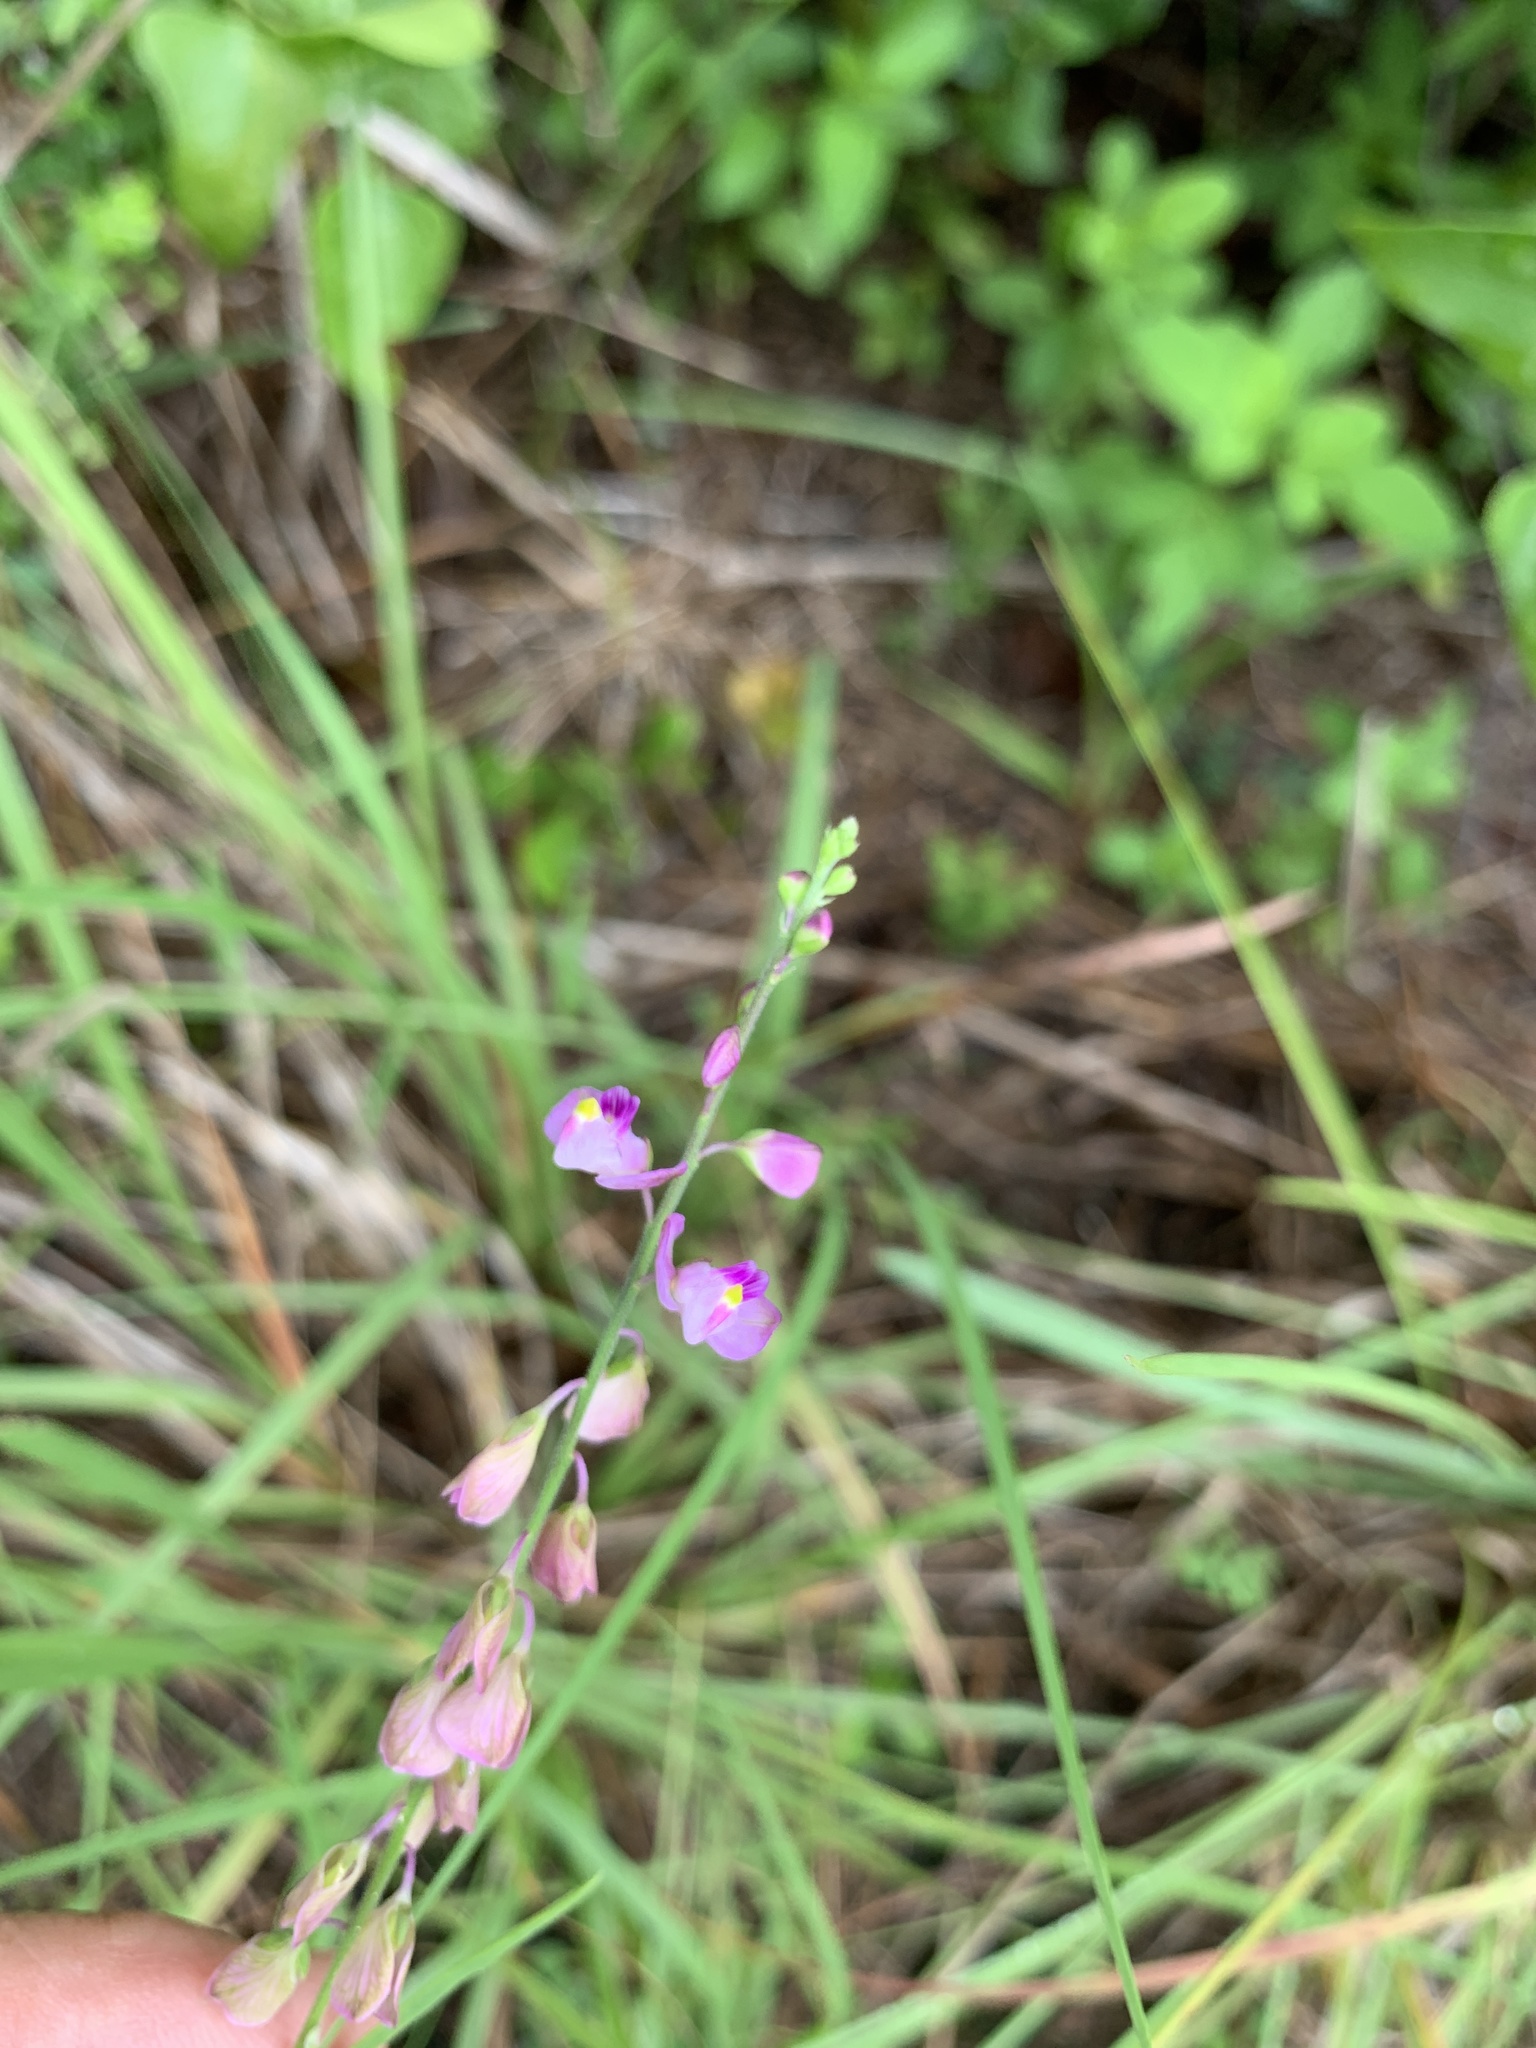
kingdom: Plantae
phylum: Tracheophyta
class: Magnoliopsida
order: Fabales
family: Polygalaceae
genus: Asemeia
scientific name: Asemeia grandiflora
